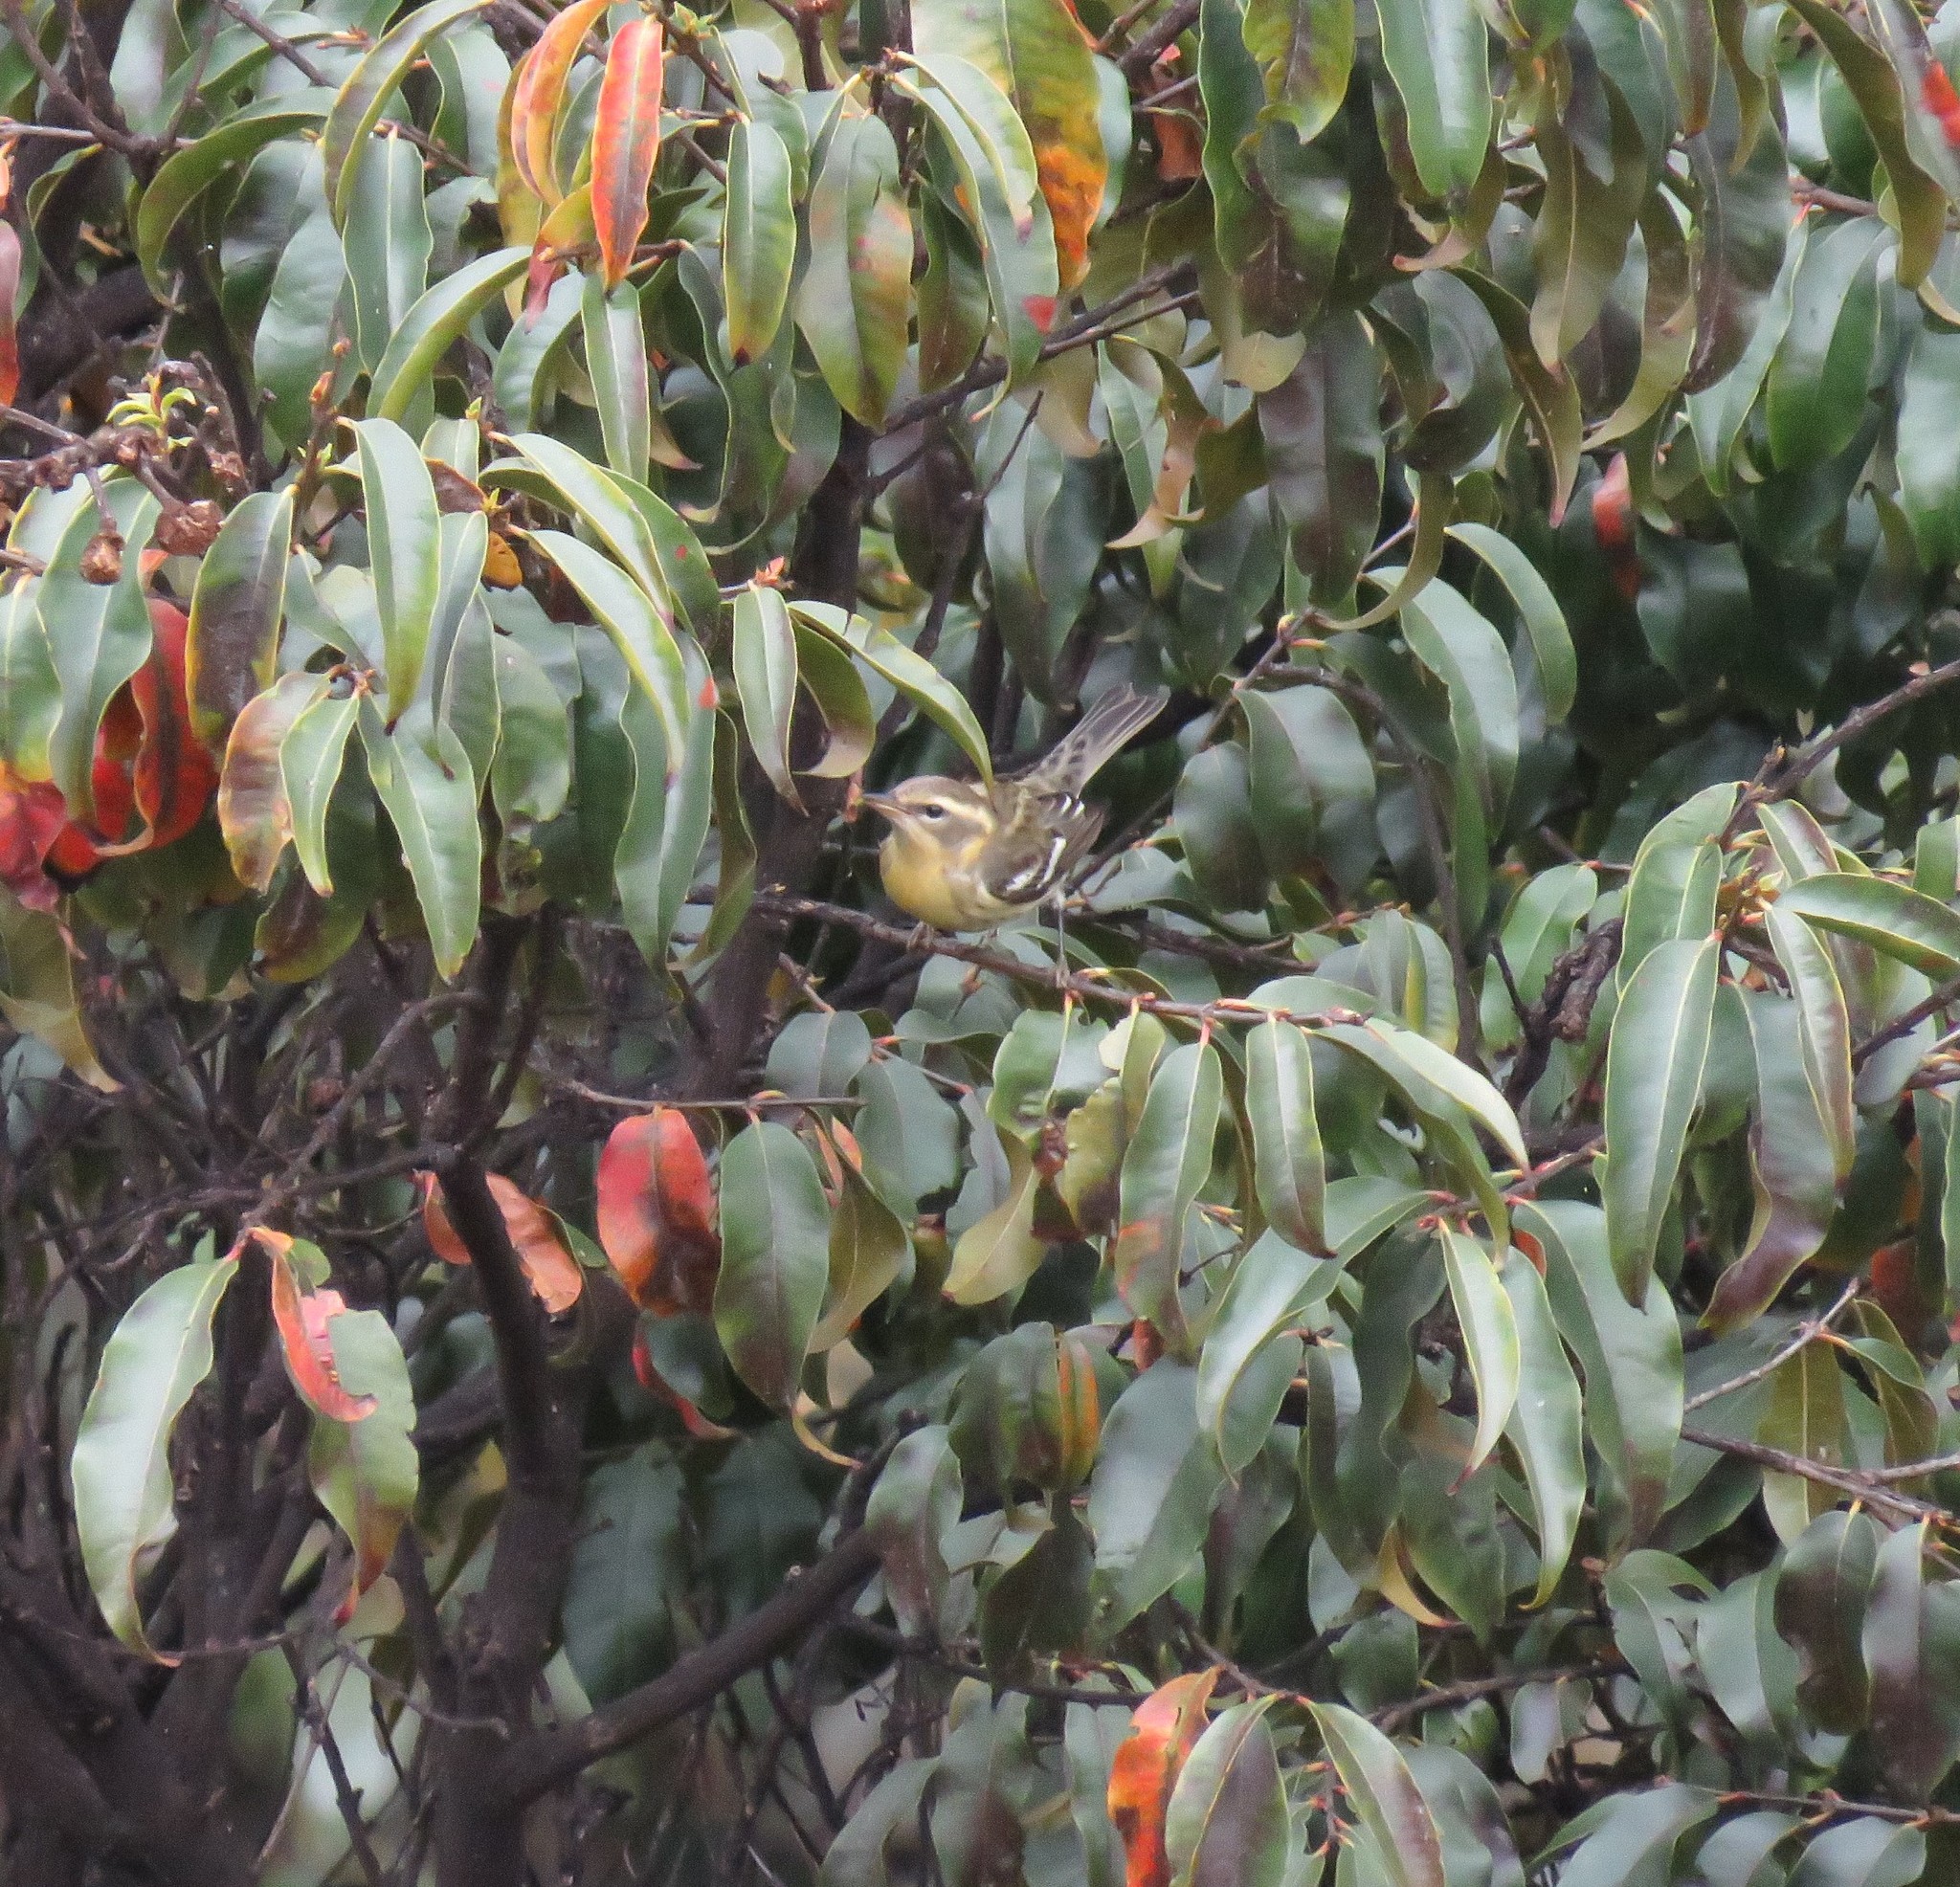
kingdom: Animalia
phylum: Chordata
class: Aves
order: Passeriformes
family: Parulidae
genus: Setophaga
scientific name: Setophaga fusca
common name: Blackburnian warbler
